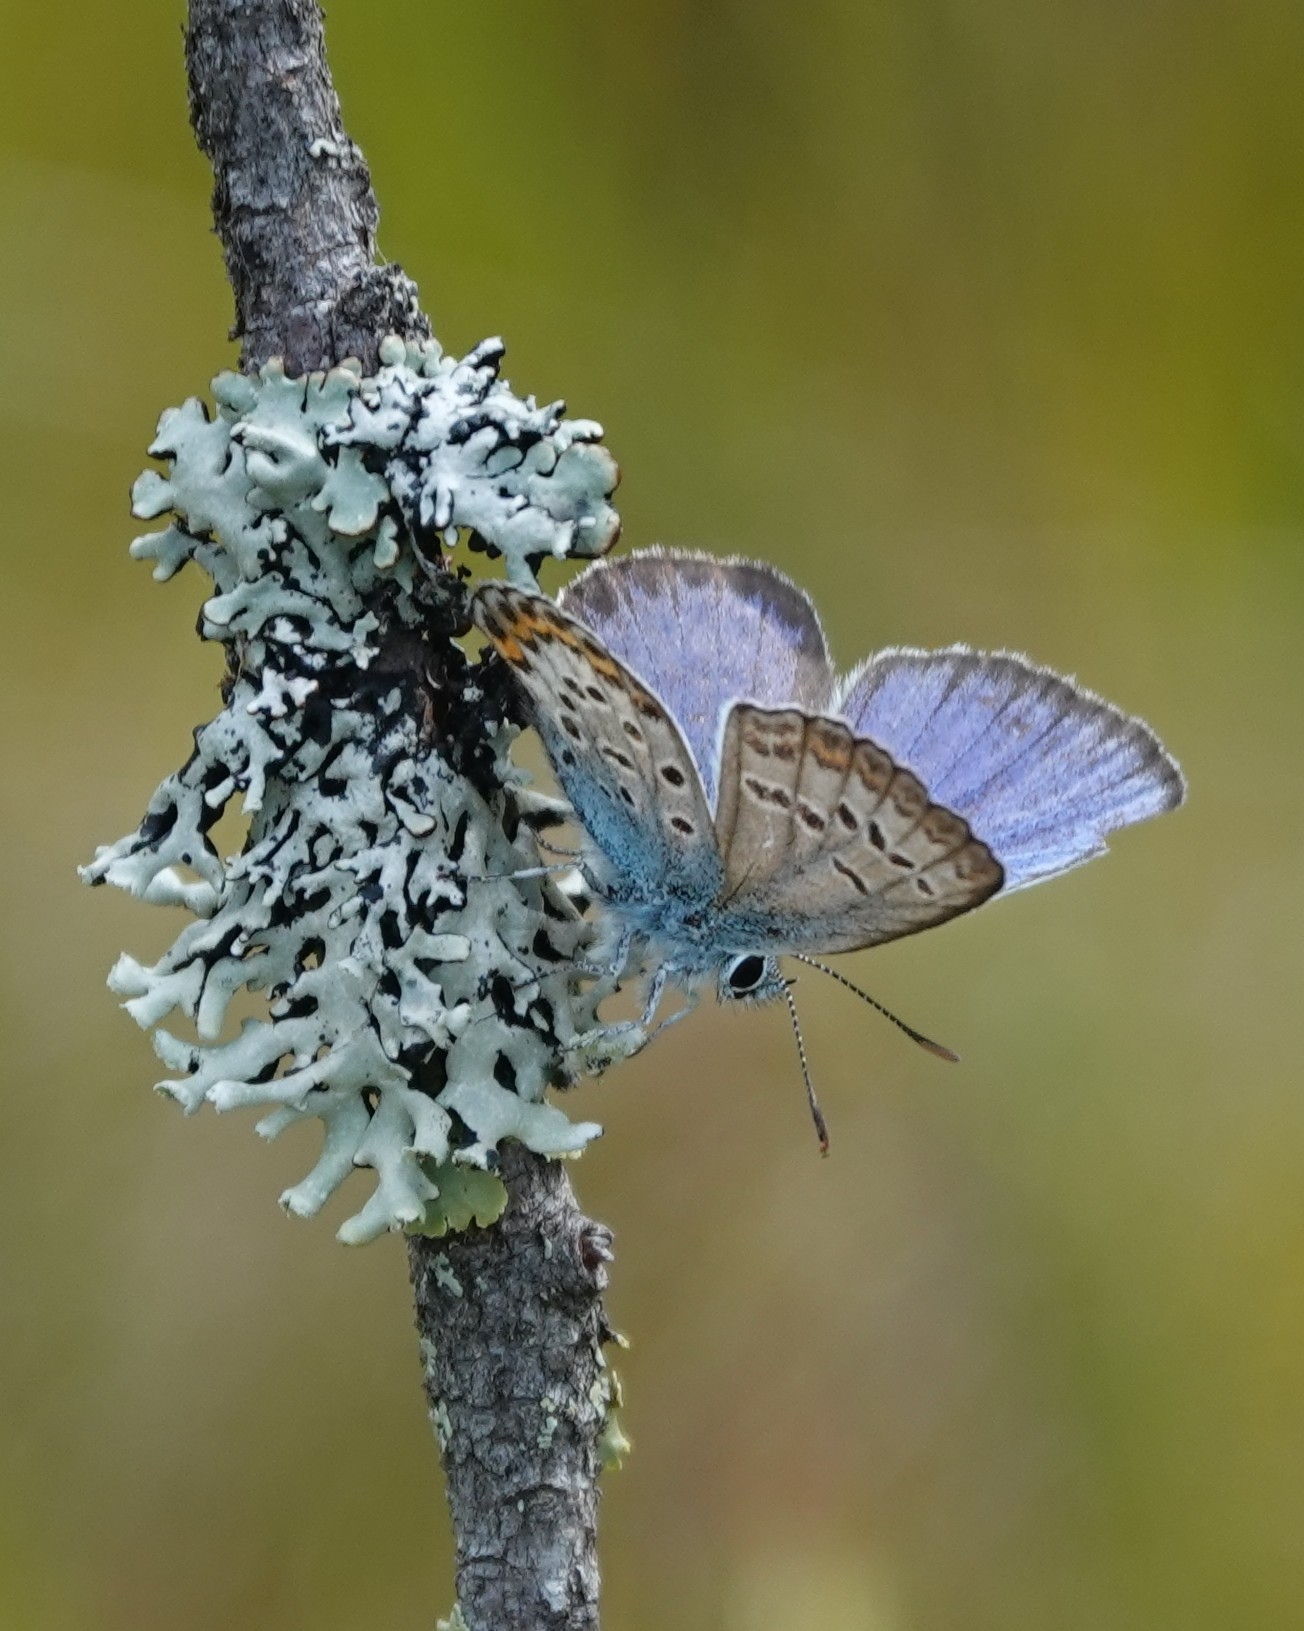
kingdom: Animalia
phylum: Arthropoda
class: Insecta
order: Lepidoptera
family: Lycaenidae
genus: Lycaeides
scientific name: Lycaeides idas
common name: Northern blue
